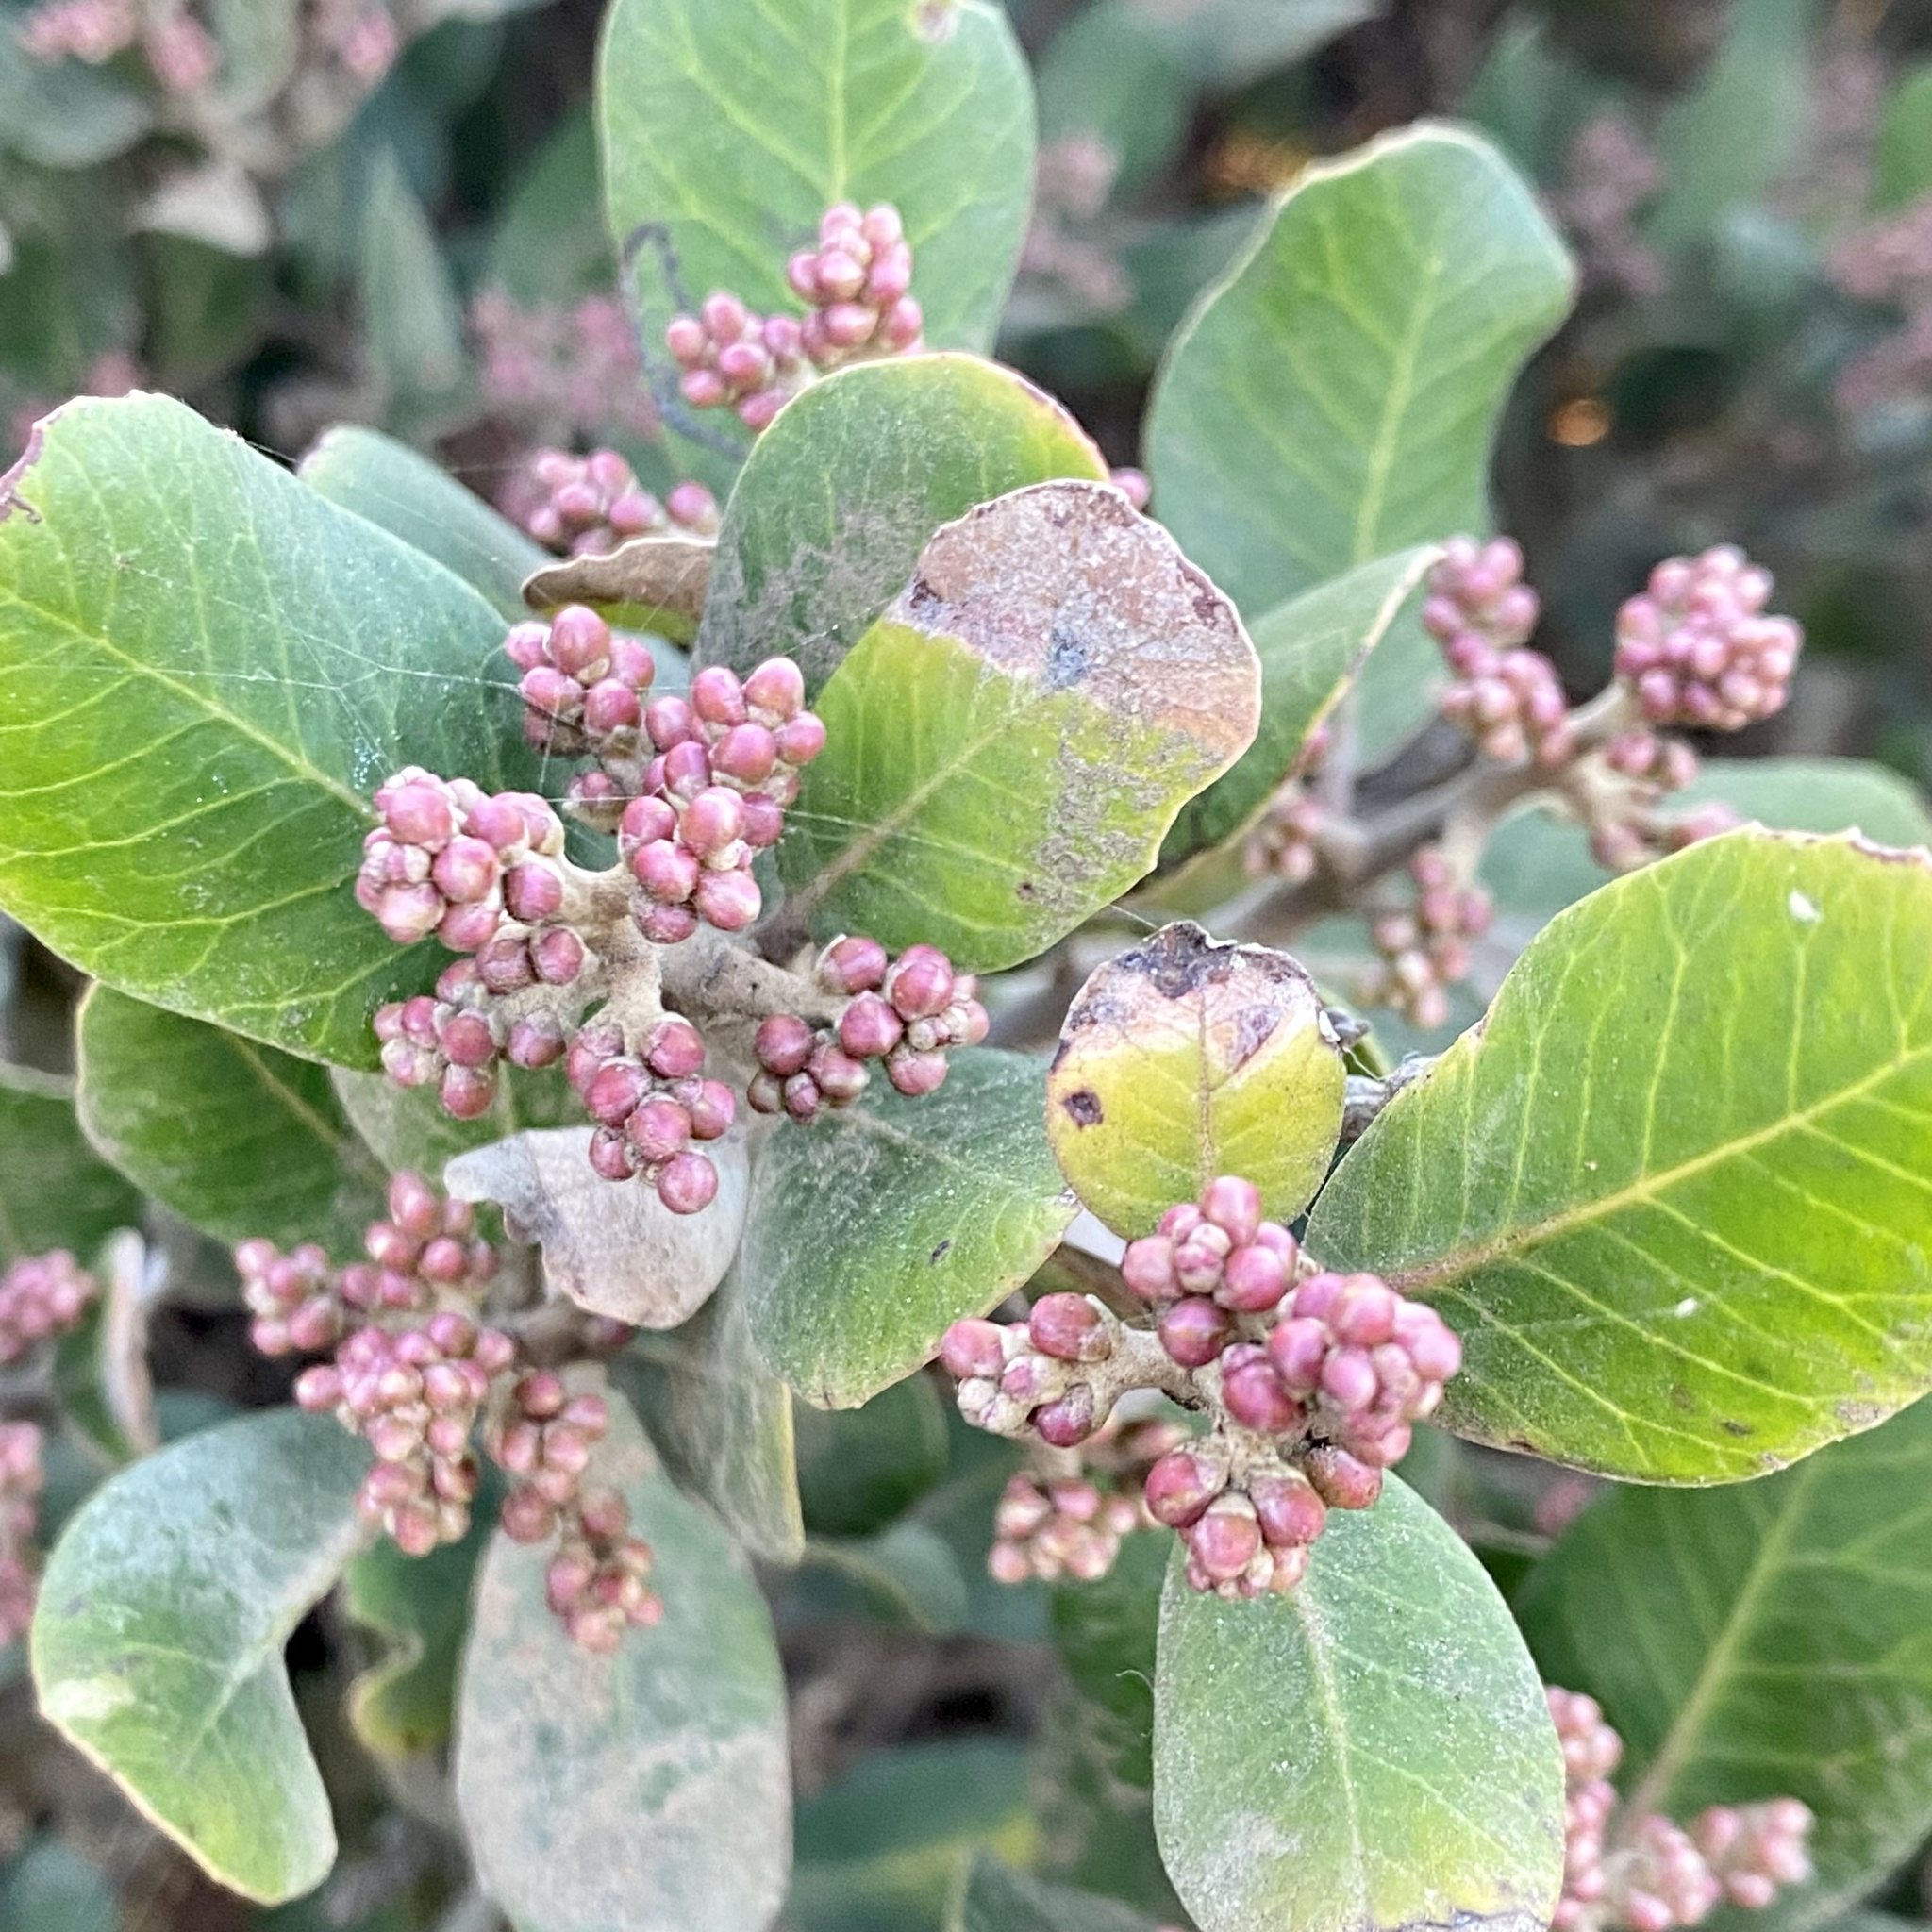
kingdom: Plantae
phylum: Tracheophyta
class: Magnoliopsida
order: Sapindales
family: Anacardiaceae
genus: Rhus
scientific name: Rhus integrifolia
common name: Lemonade sumac
